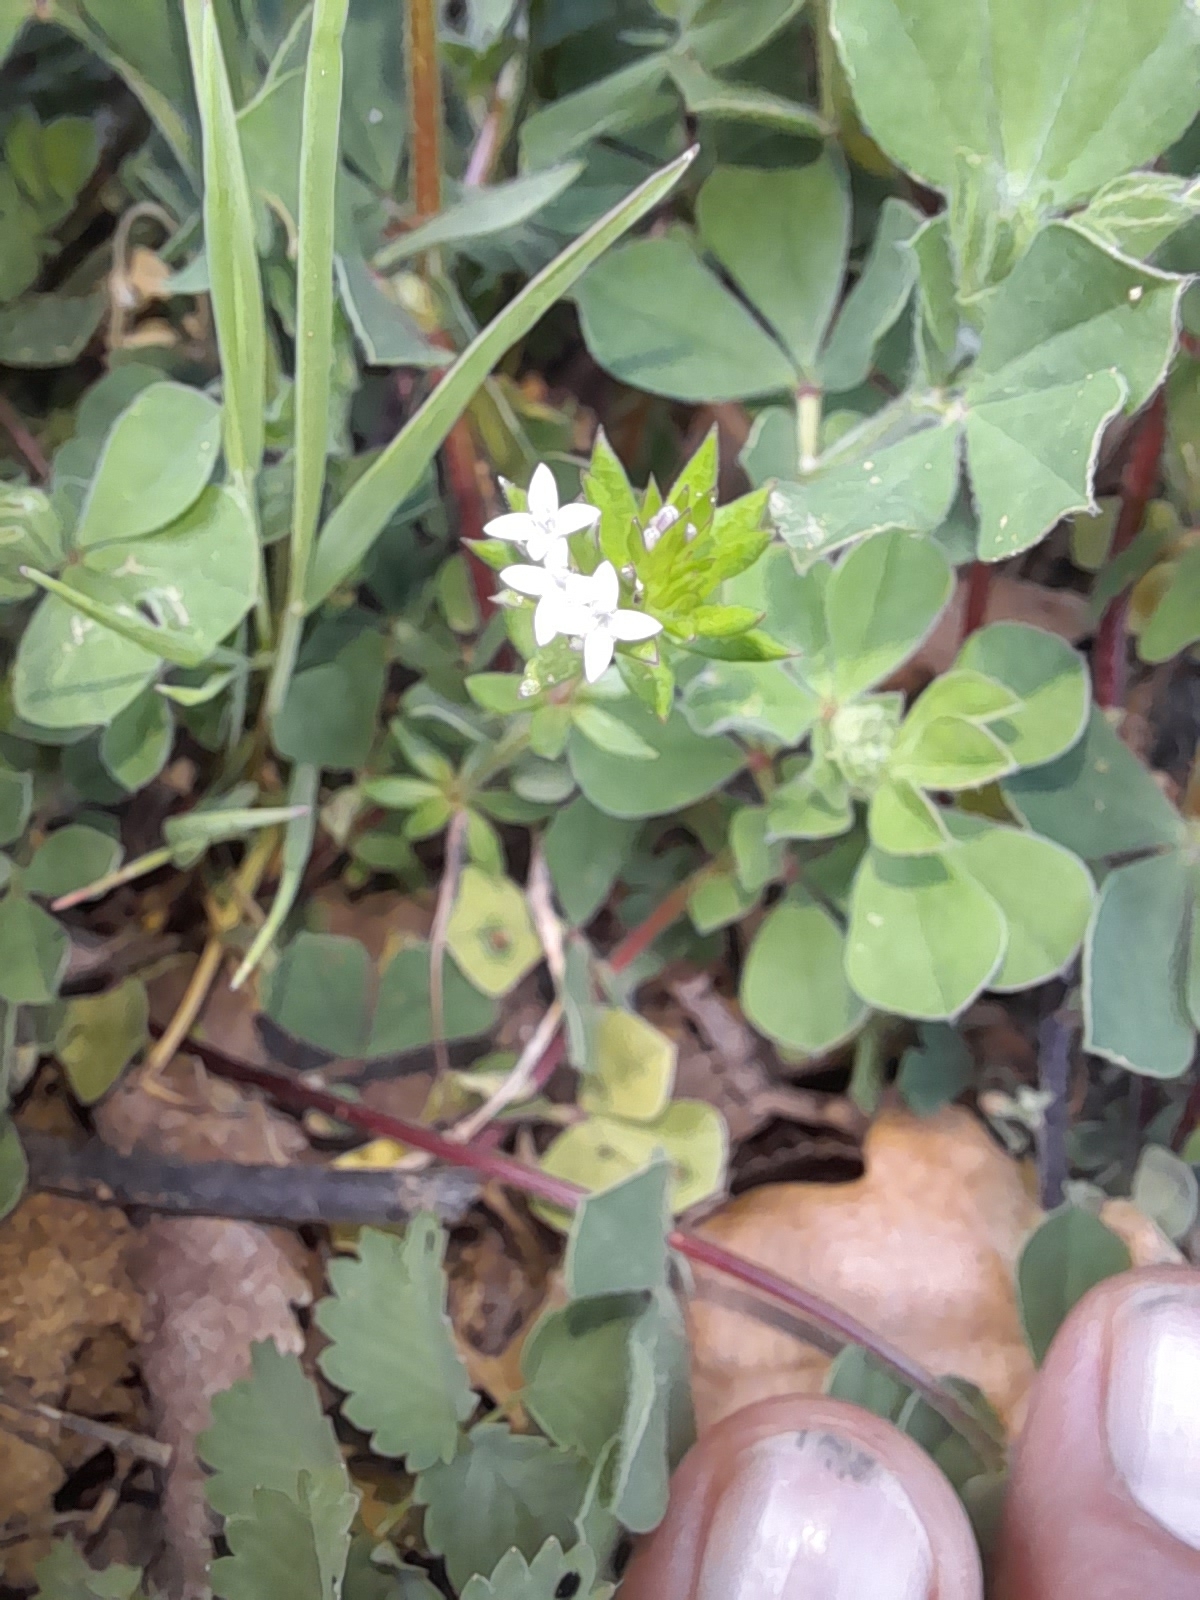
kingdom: Plantae
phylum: Tracheophyta
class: Magnoliopsida
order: Gentianales
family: Rubiaceae
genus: Sherardia
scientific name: Sherardia arvensis
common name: Field madder
